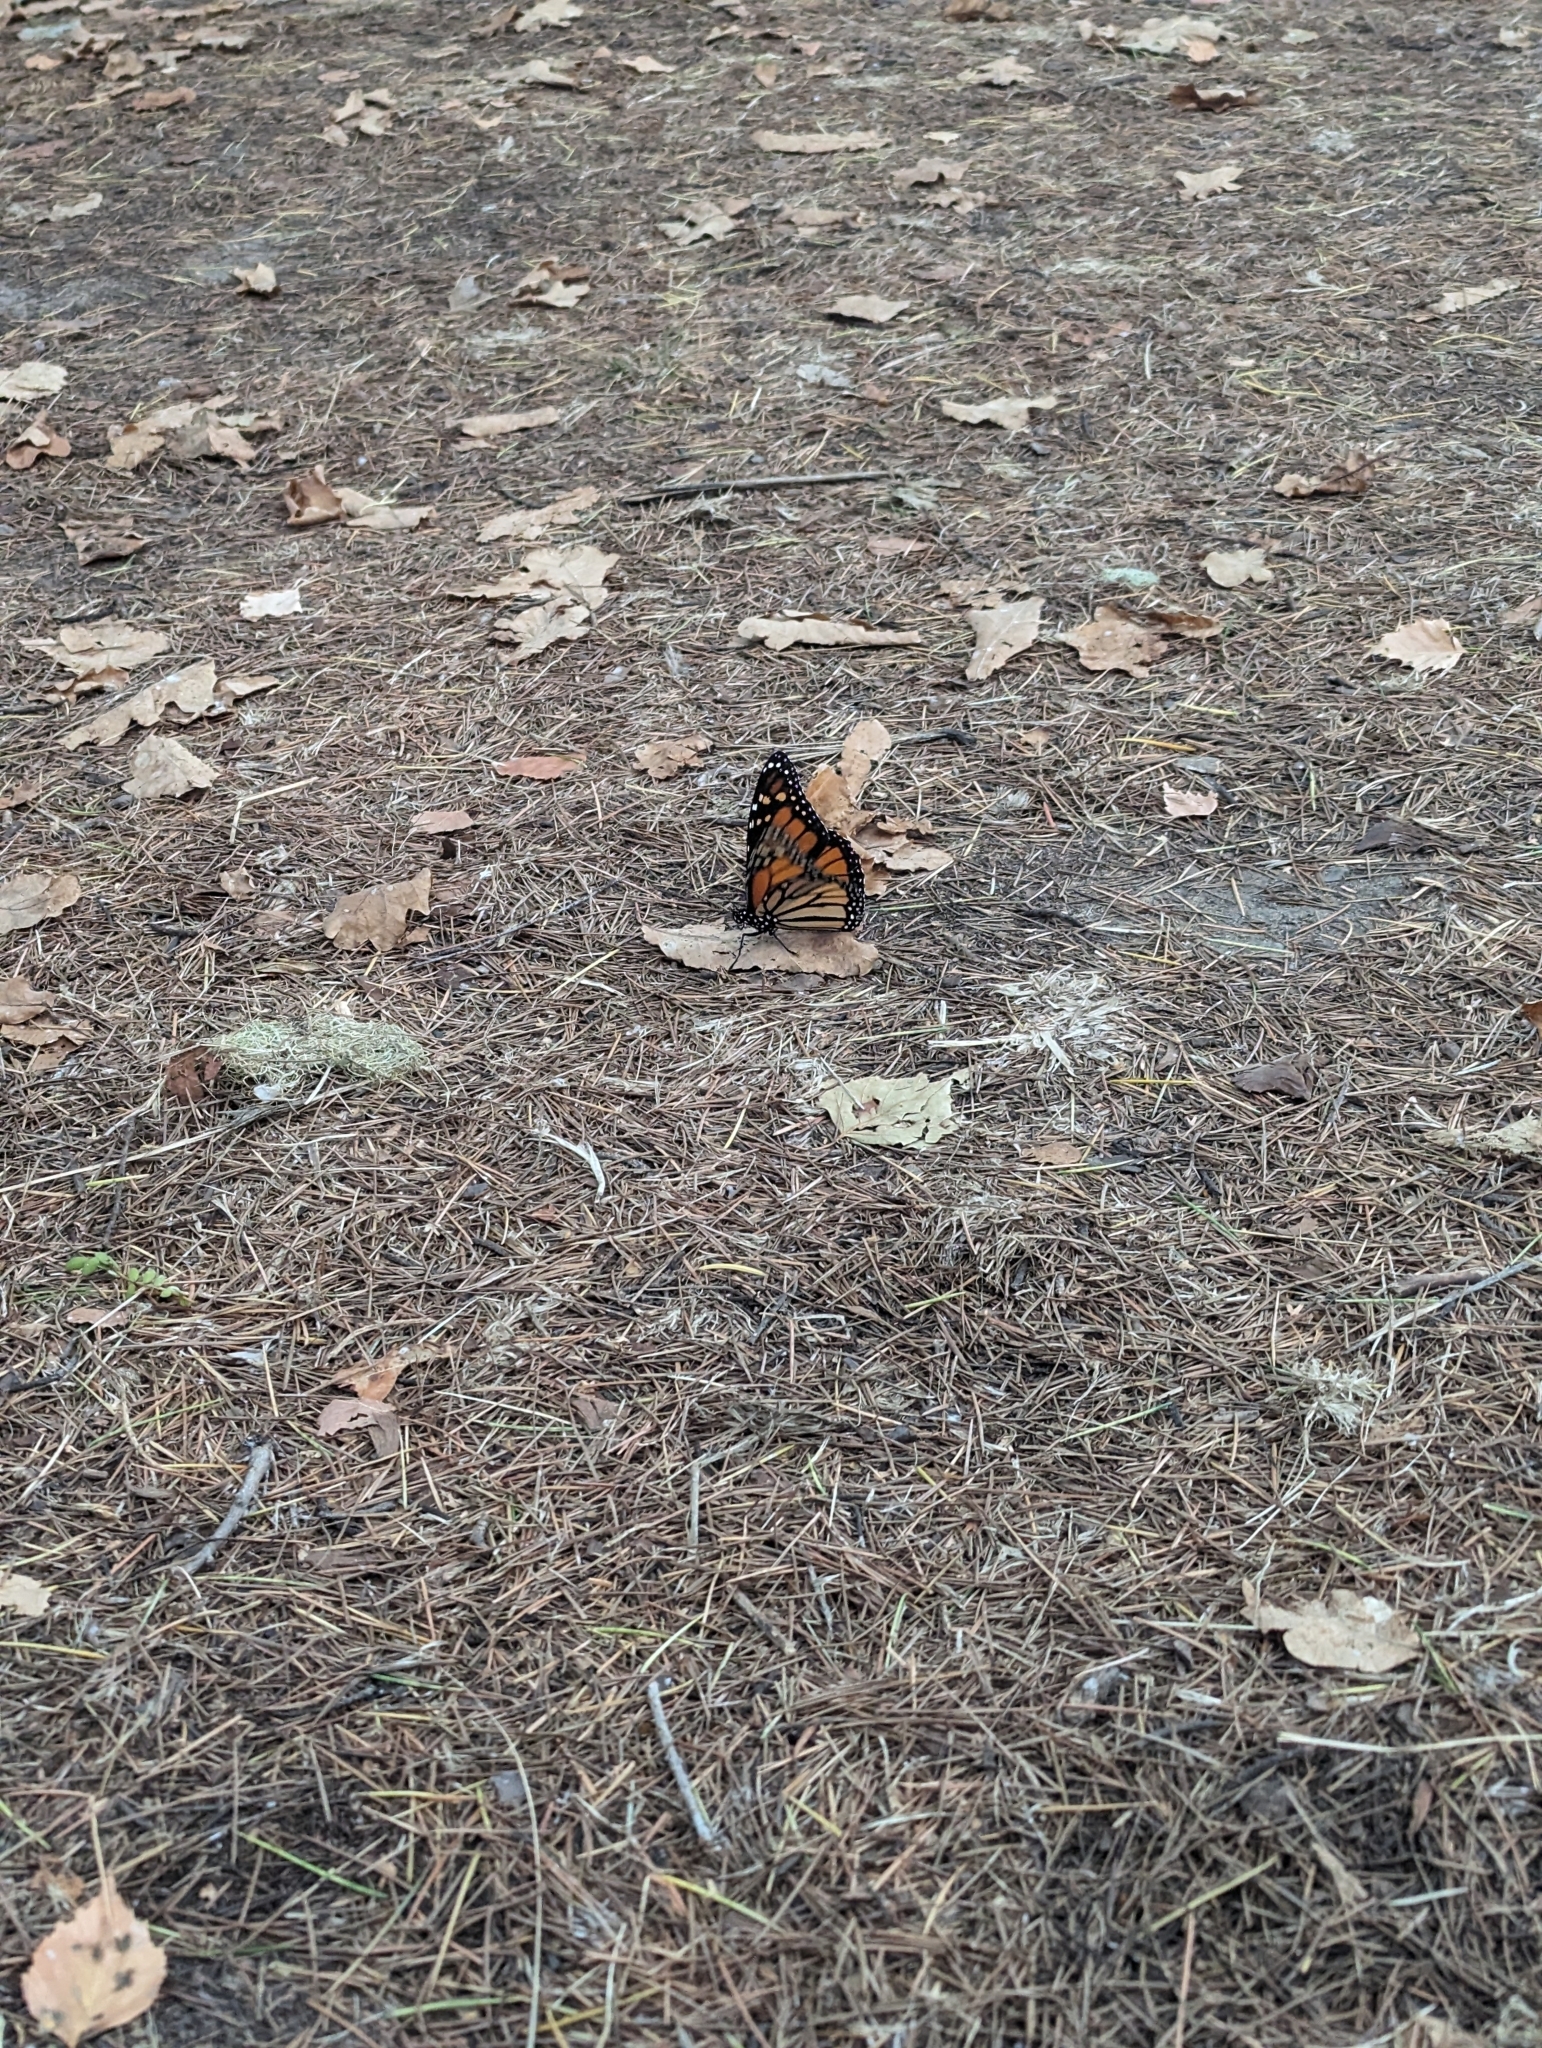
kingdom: Animalia
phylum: Arthropoda
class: Insecta
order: Lepidoptera
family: Nymphalidae
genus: Danaus
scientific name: Danaus plexippus
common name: Monarch
